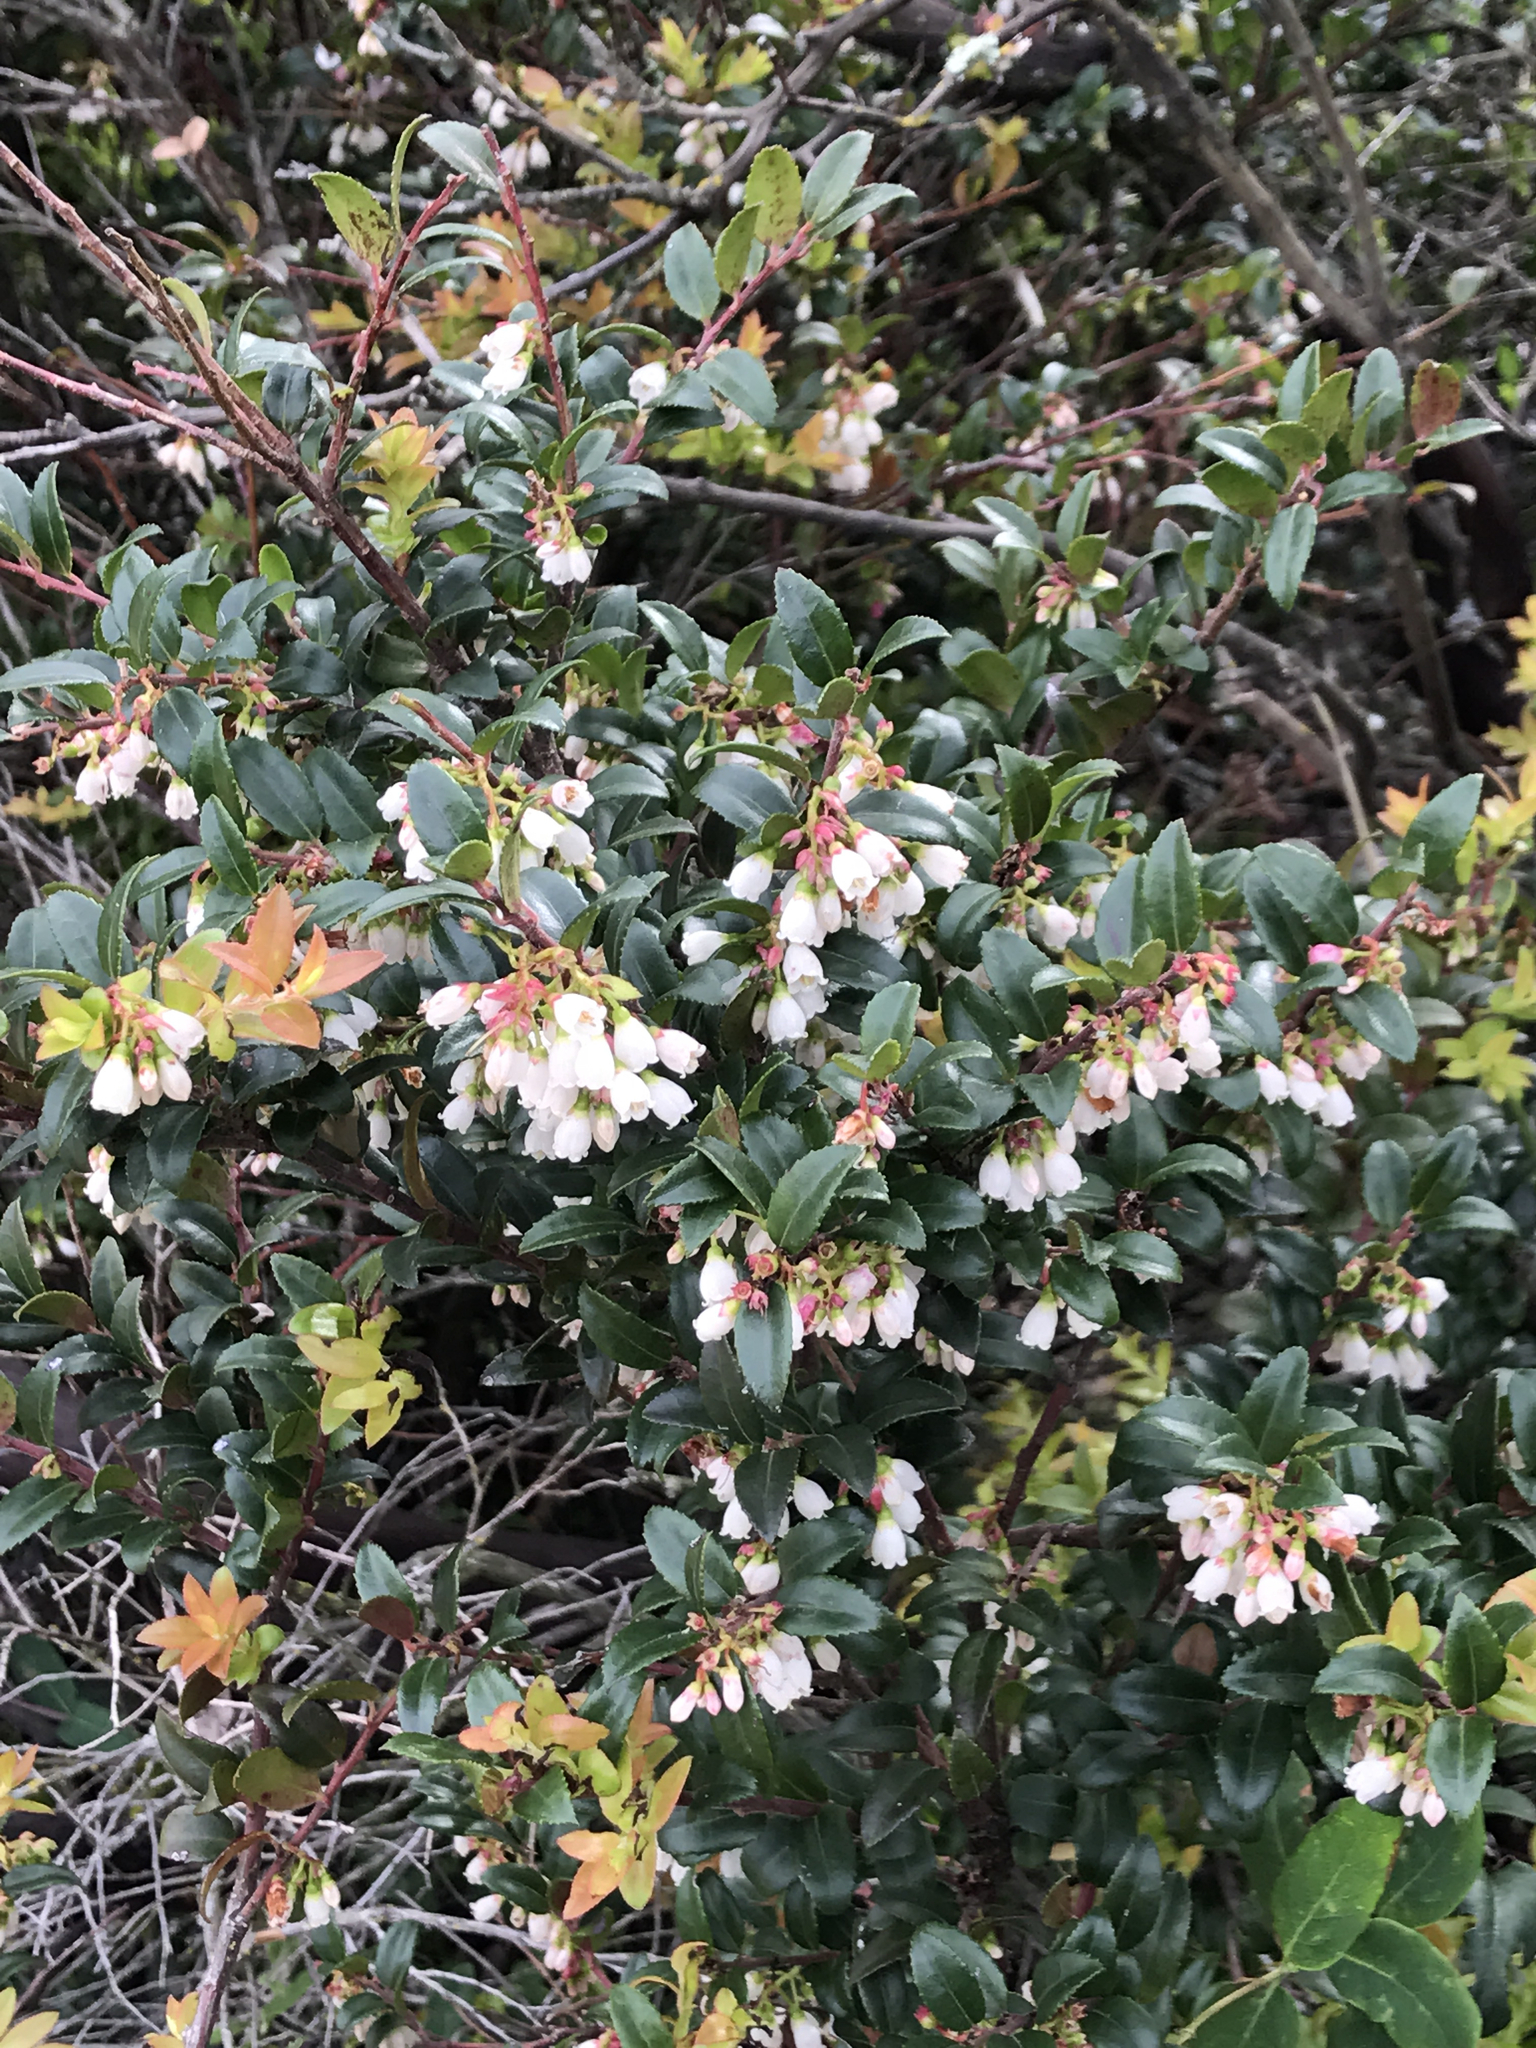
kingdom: Plantae
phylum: Tracheophyta
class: Magnoliopsida
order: Ericales
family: Ericaceae
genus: Vaccinium
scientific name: Vaccinium ovatum
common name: California-huckleberry
